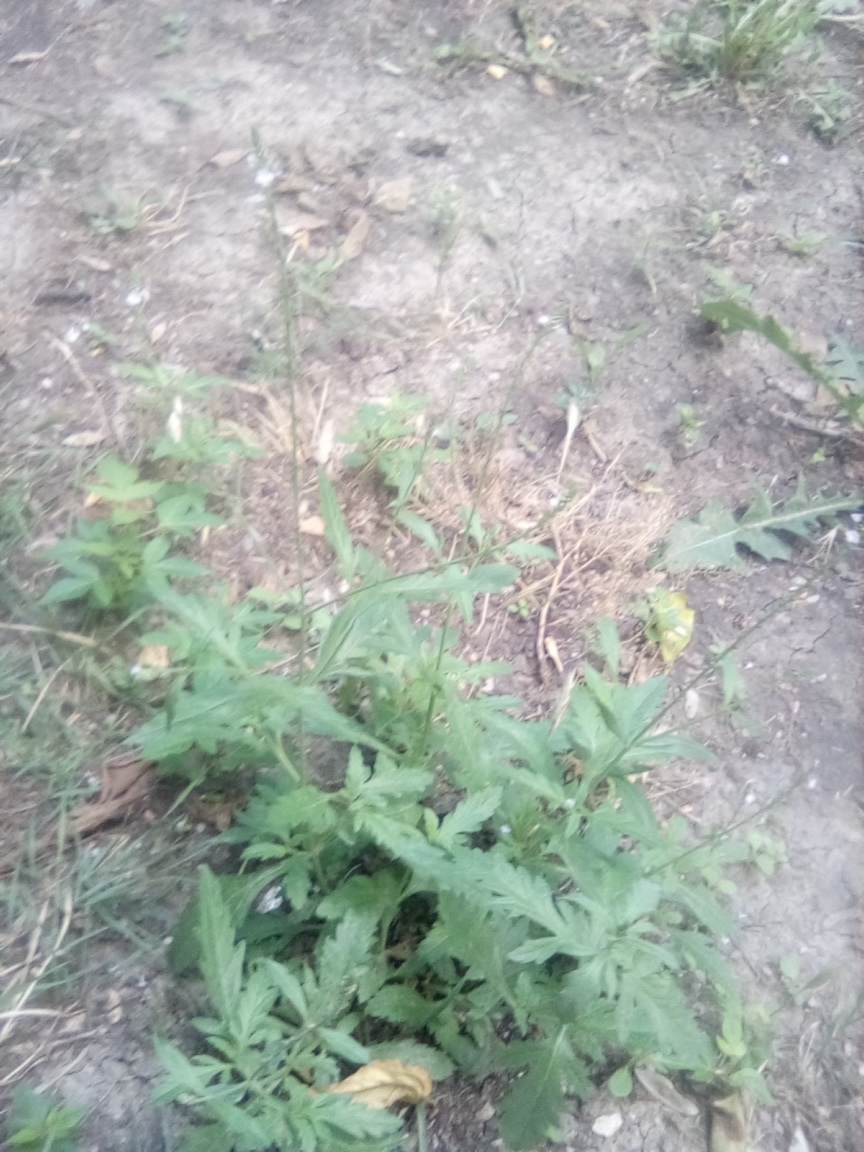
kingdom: Plantae
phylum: Tracheophyta
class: Magnoliopsida
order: Lamiales
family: Verbenaceae
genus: Verbena
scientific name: Verbena officinalis
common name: Vervain
